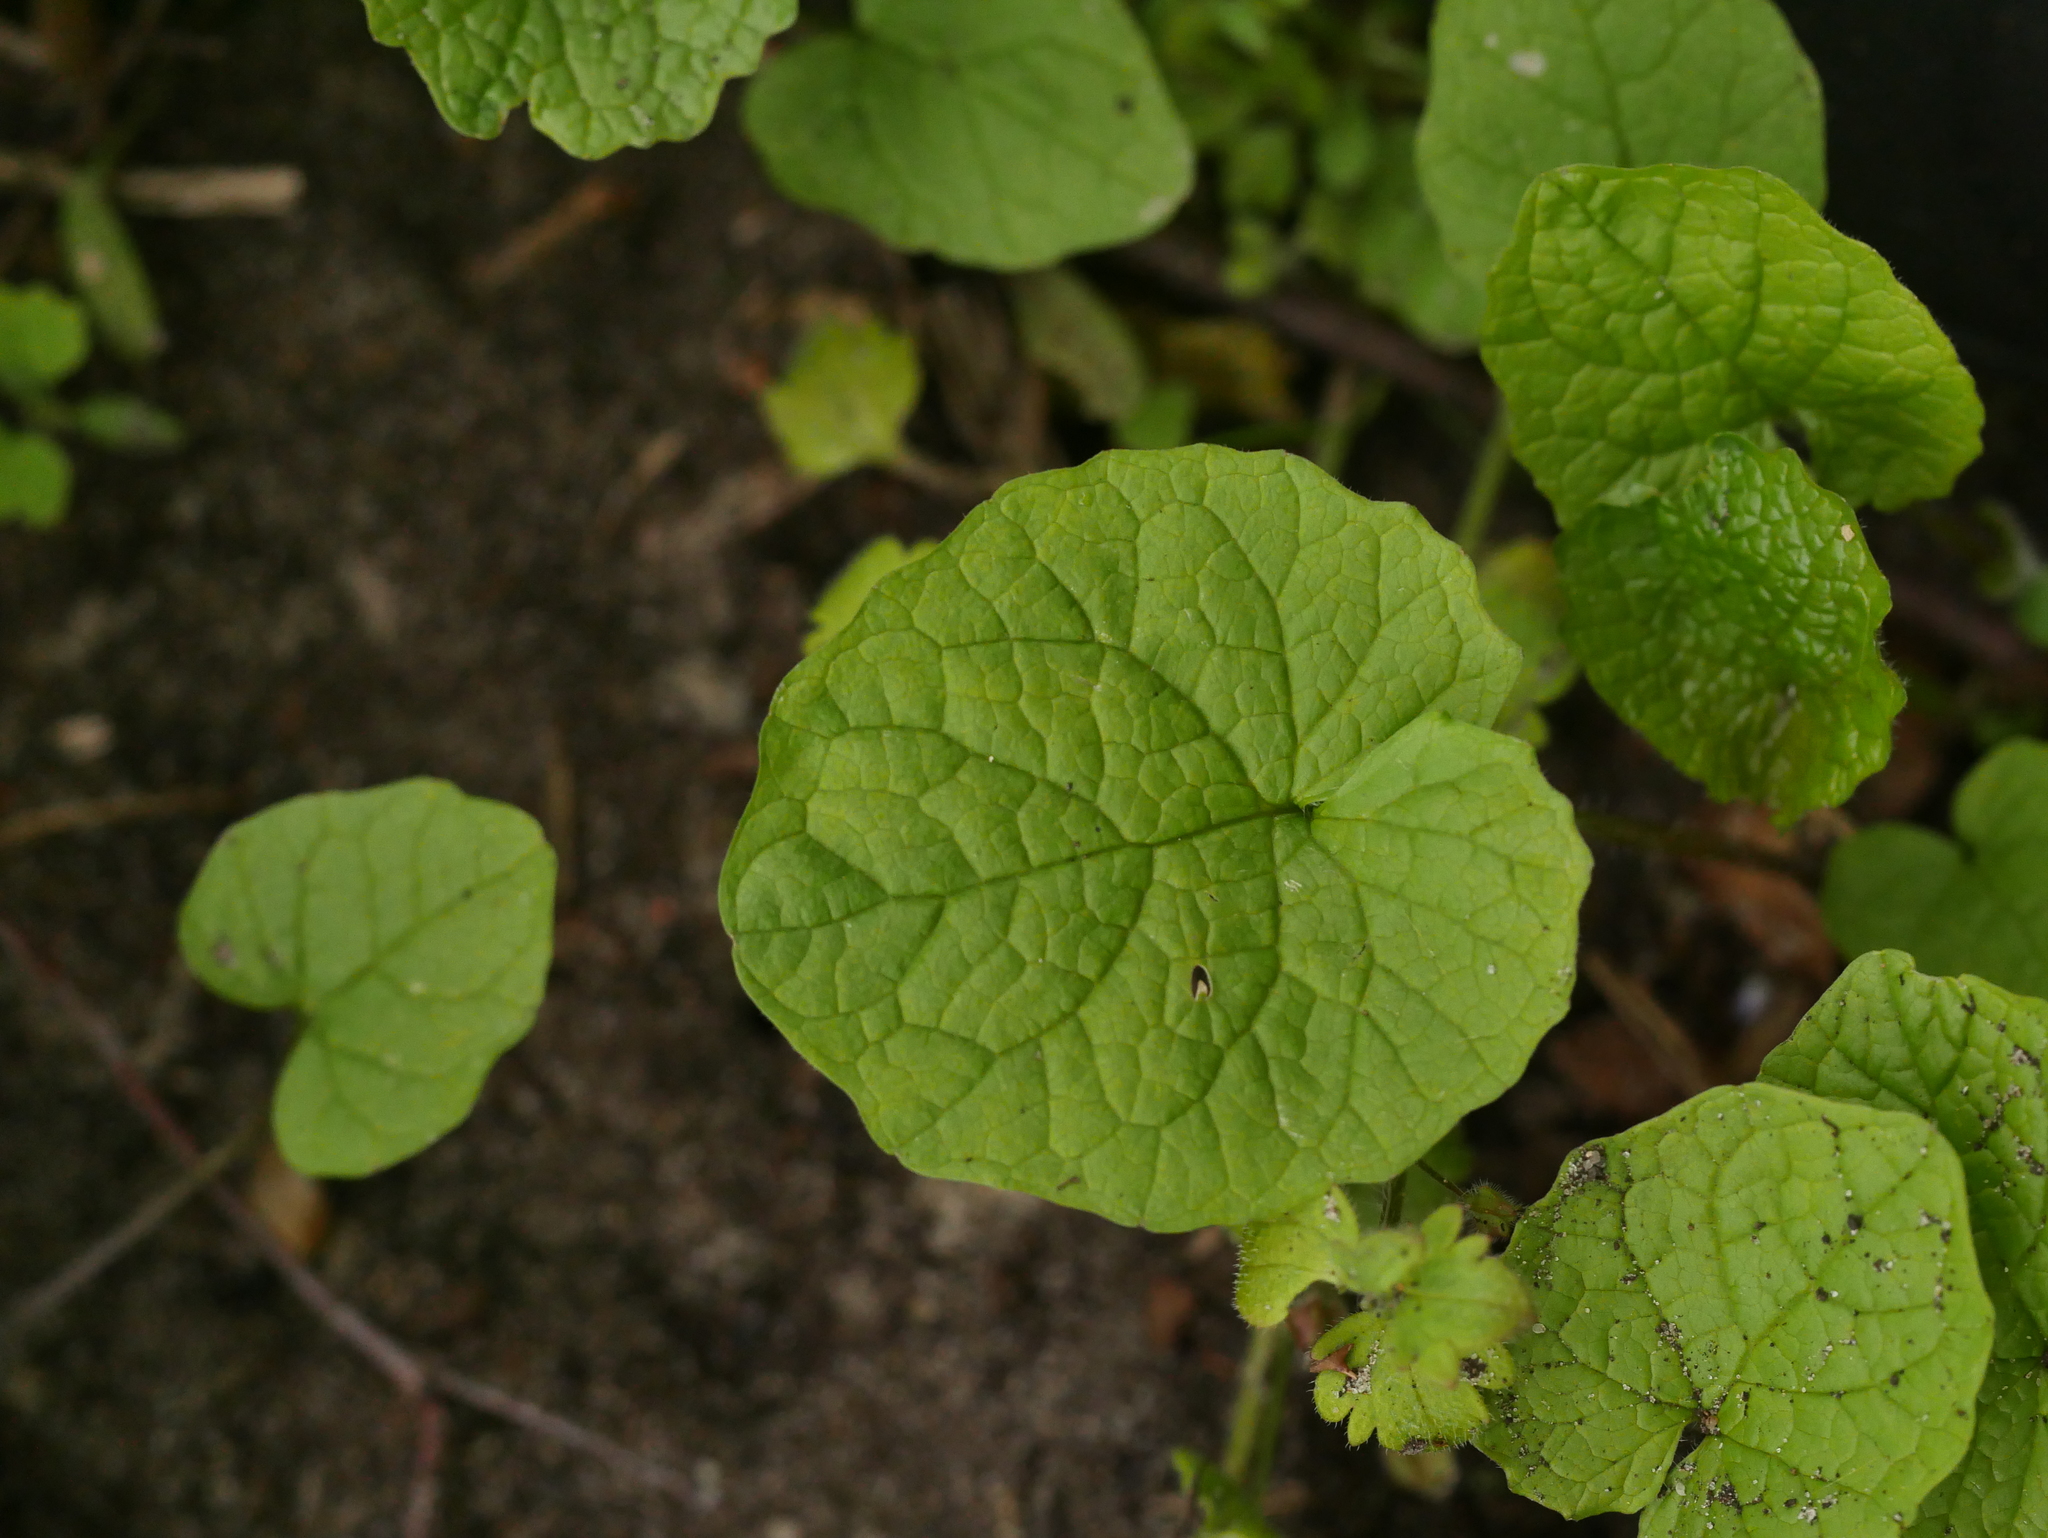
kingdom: Plantae
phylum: Tracheophyta
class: Magnoliopsida
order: Brassicales
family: Brassicaceae
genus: Alliaria
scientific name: Alliaria petiolata
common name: Garlic mustard
